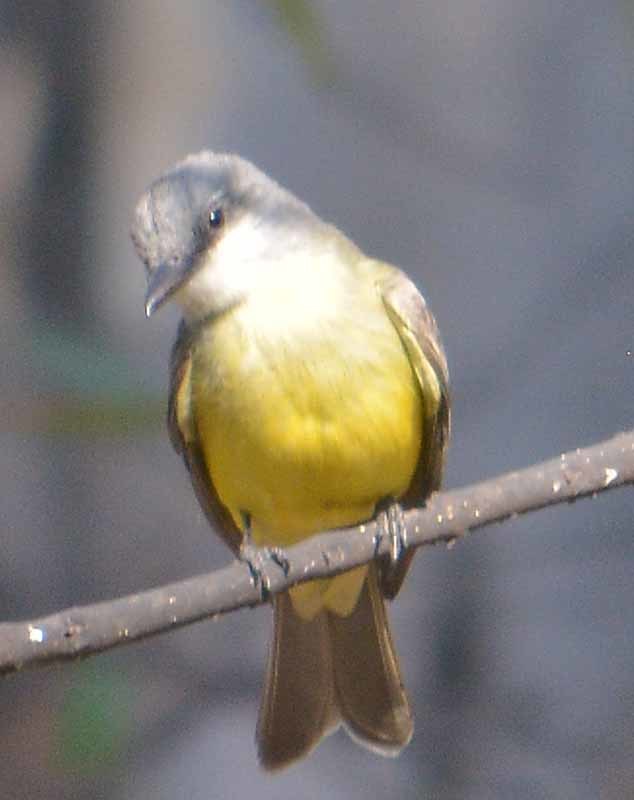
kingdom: Animalia
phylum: Chordata
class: Aves
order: Passeriformes
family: Tyrannidae
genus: Tyrannus
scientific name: Tyrannus melancholicus
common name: Tropical kingbird
